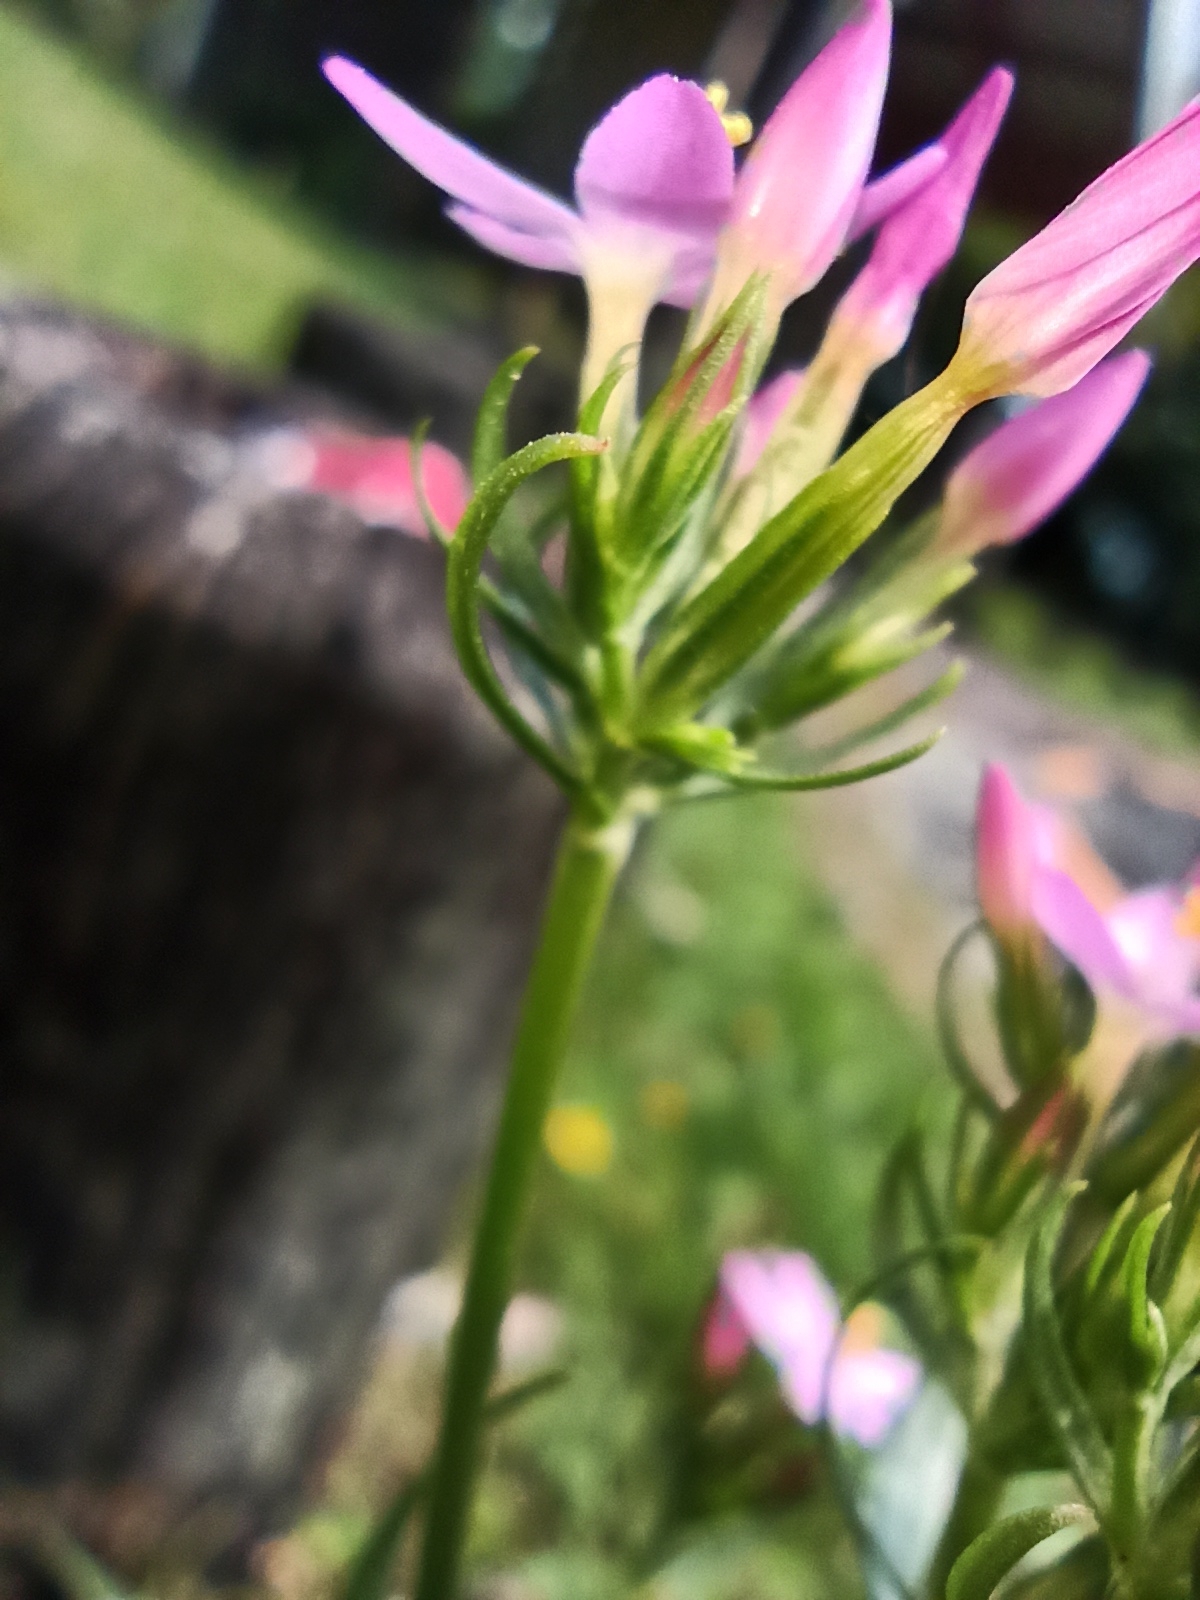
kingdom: Plantae
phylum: Tracheophyta
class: Magnoliopsida
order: Gentianales
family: Gentianaceae
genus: Centaurium
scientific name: Centaurium erythraea
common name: Common centaury
